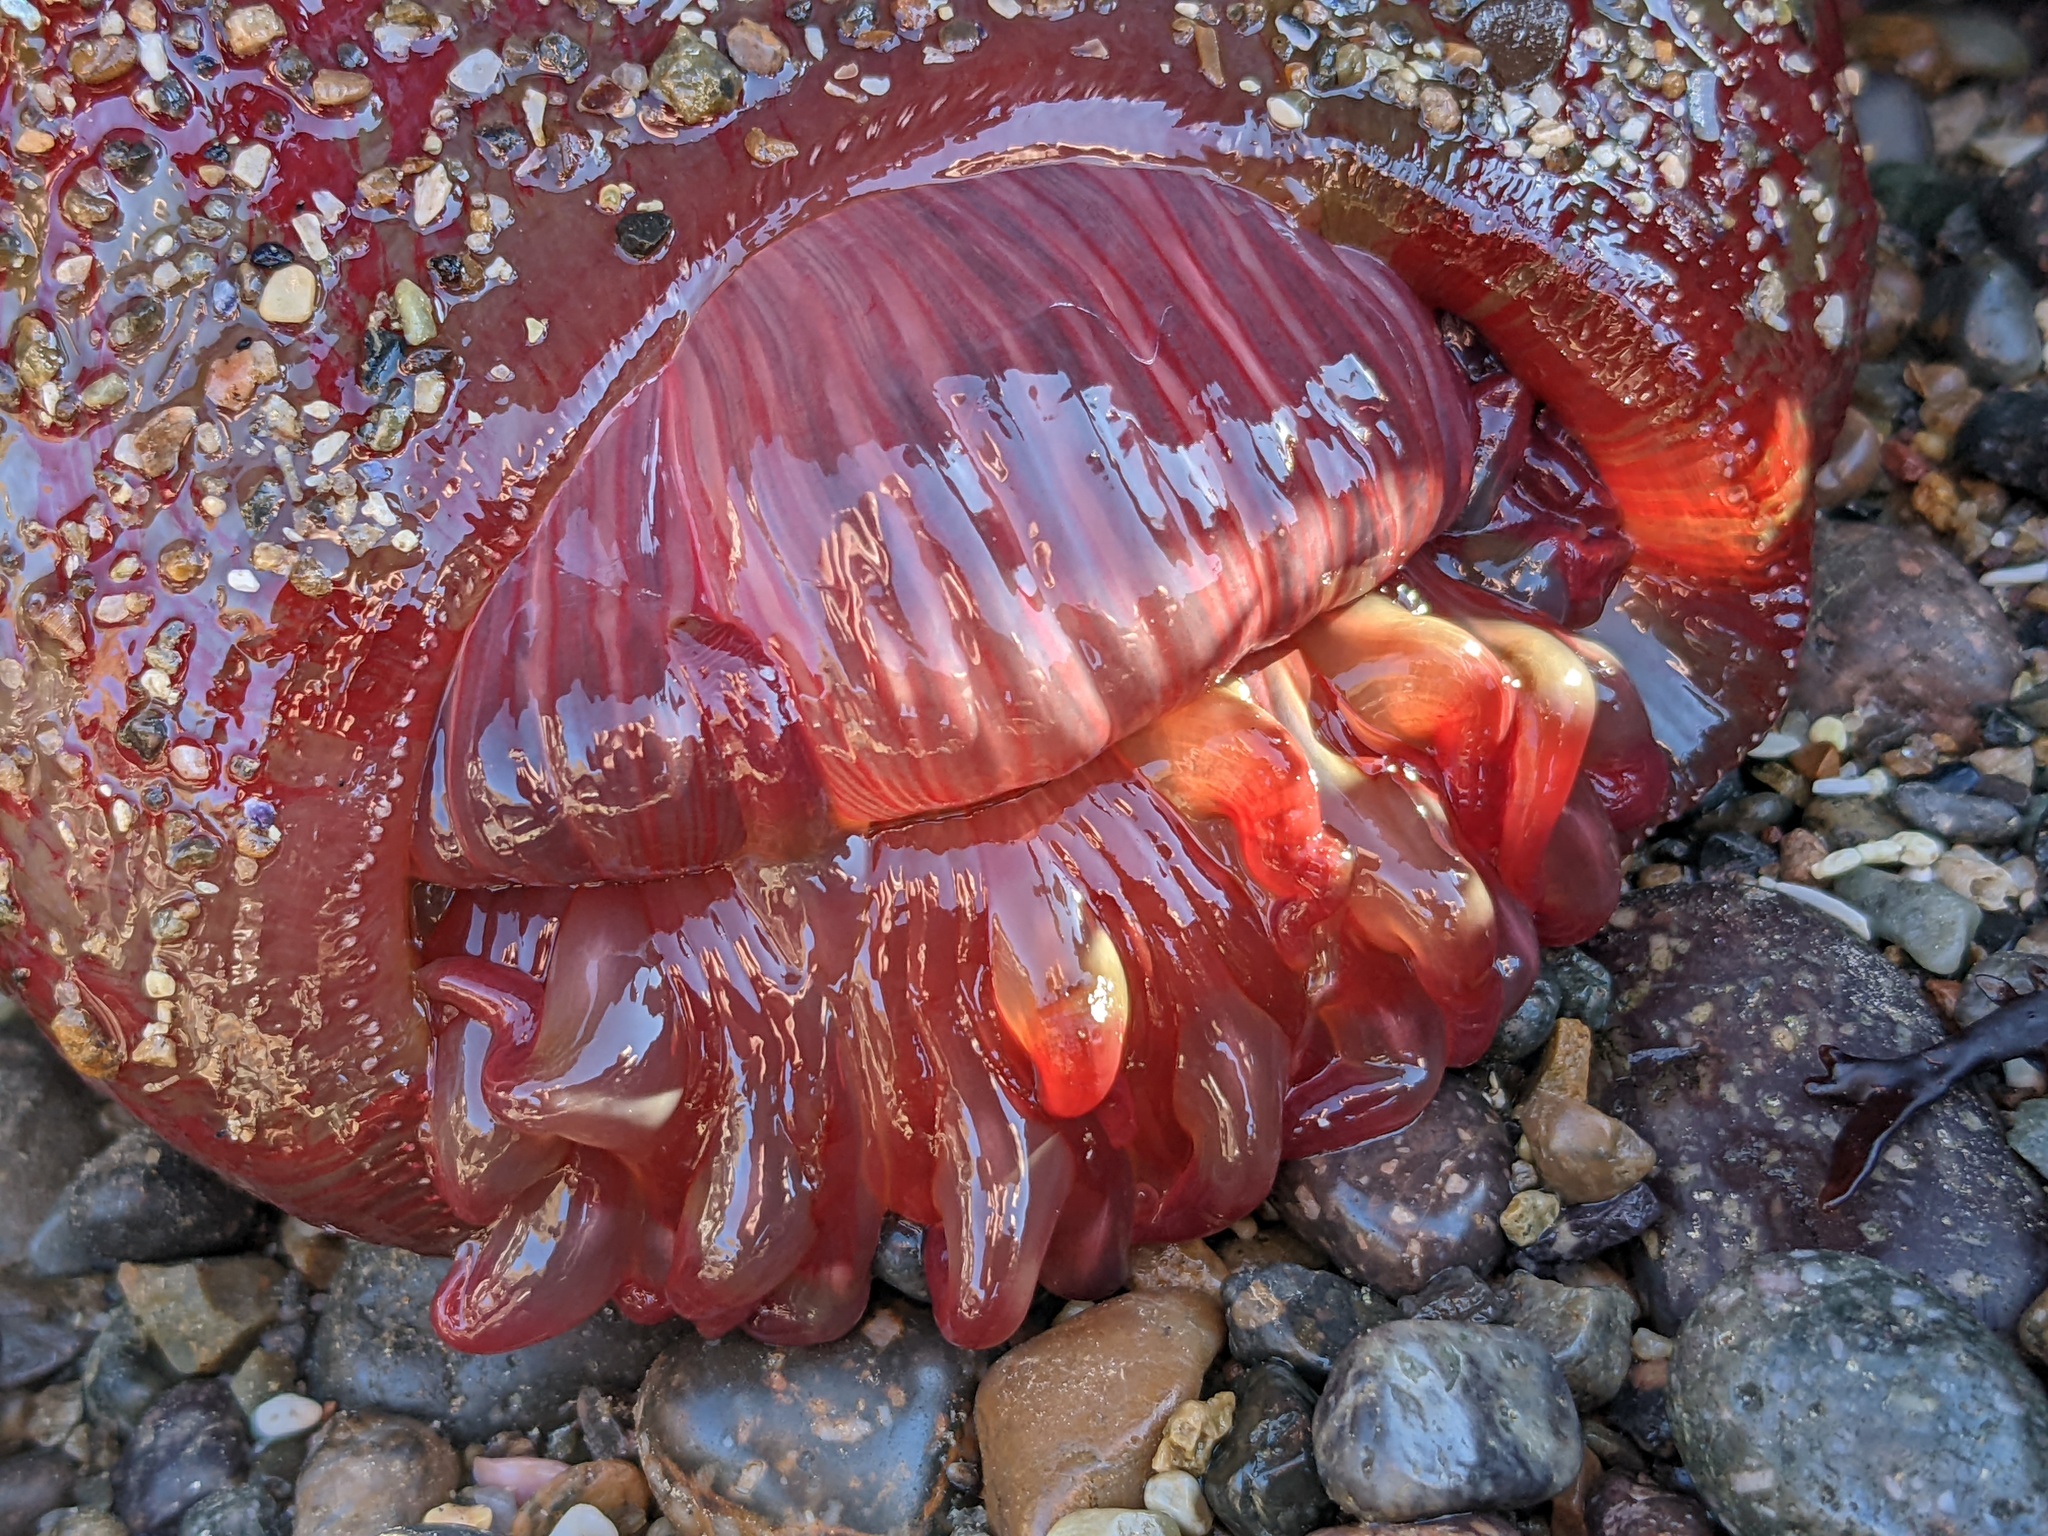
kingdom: Animalia
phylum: Cnidaria
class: Anthozoa
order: Actiniaria
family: Actiniidae
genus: Urticina
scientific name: Urticina grebelnyi
